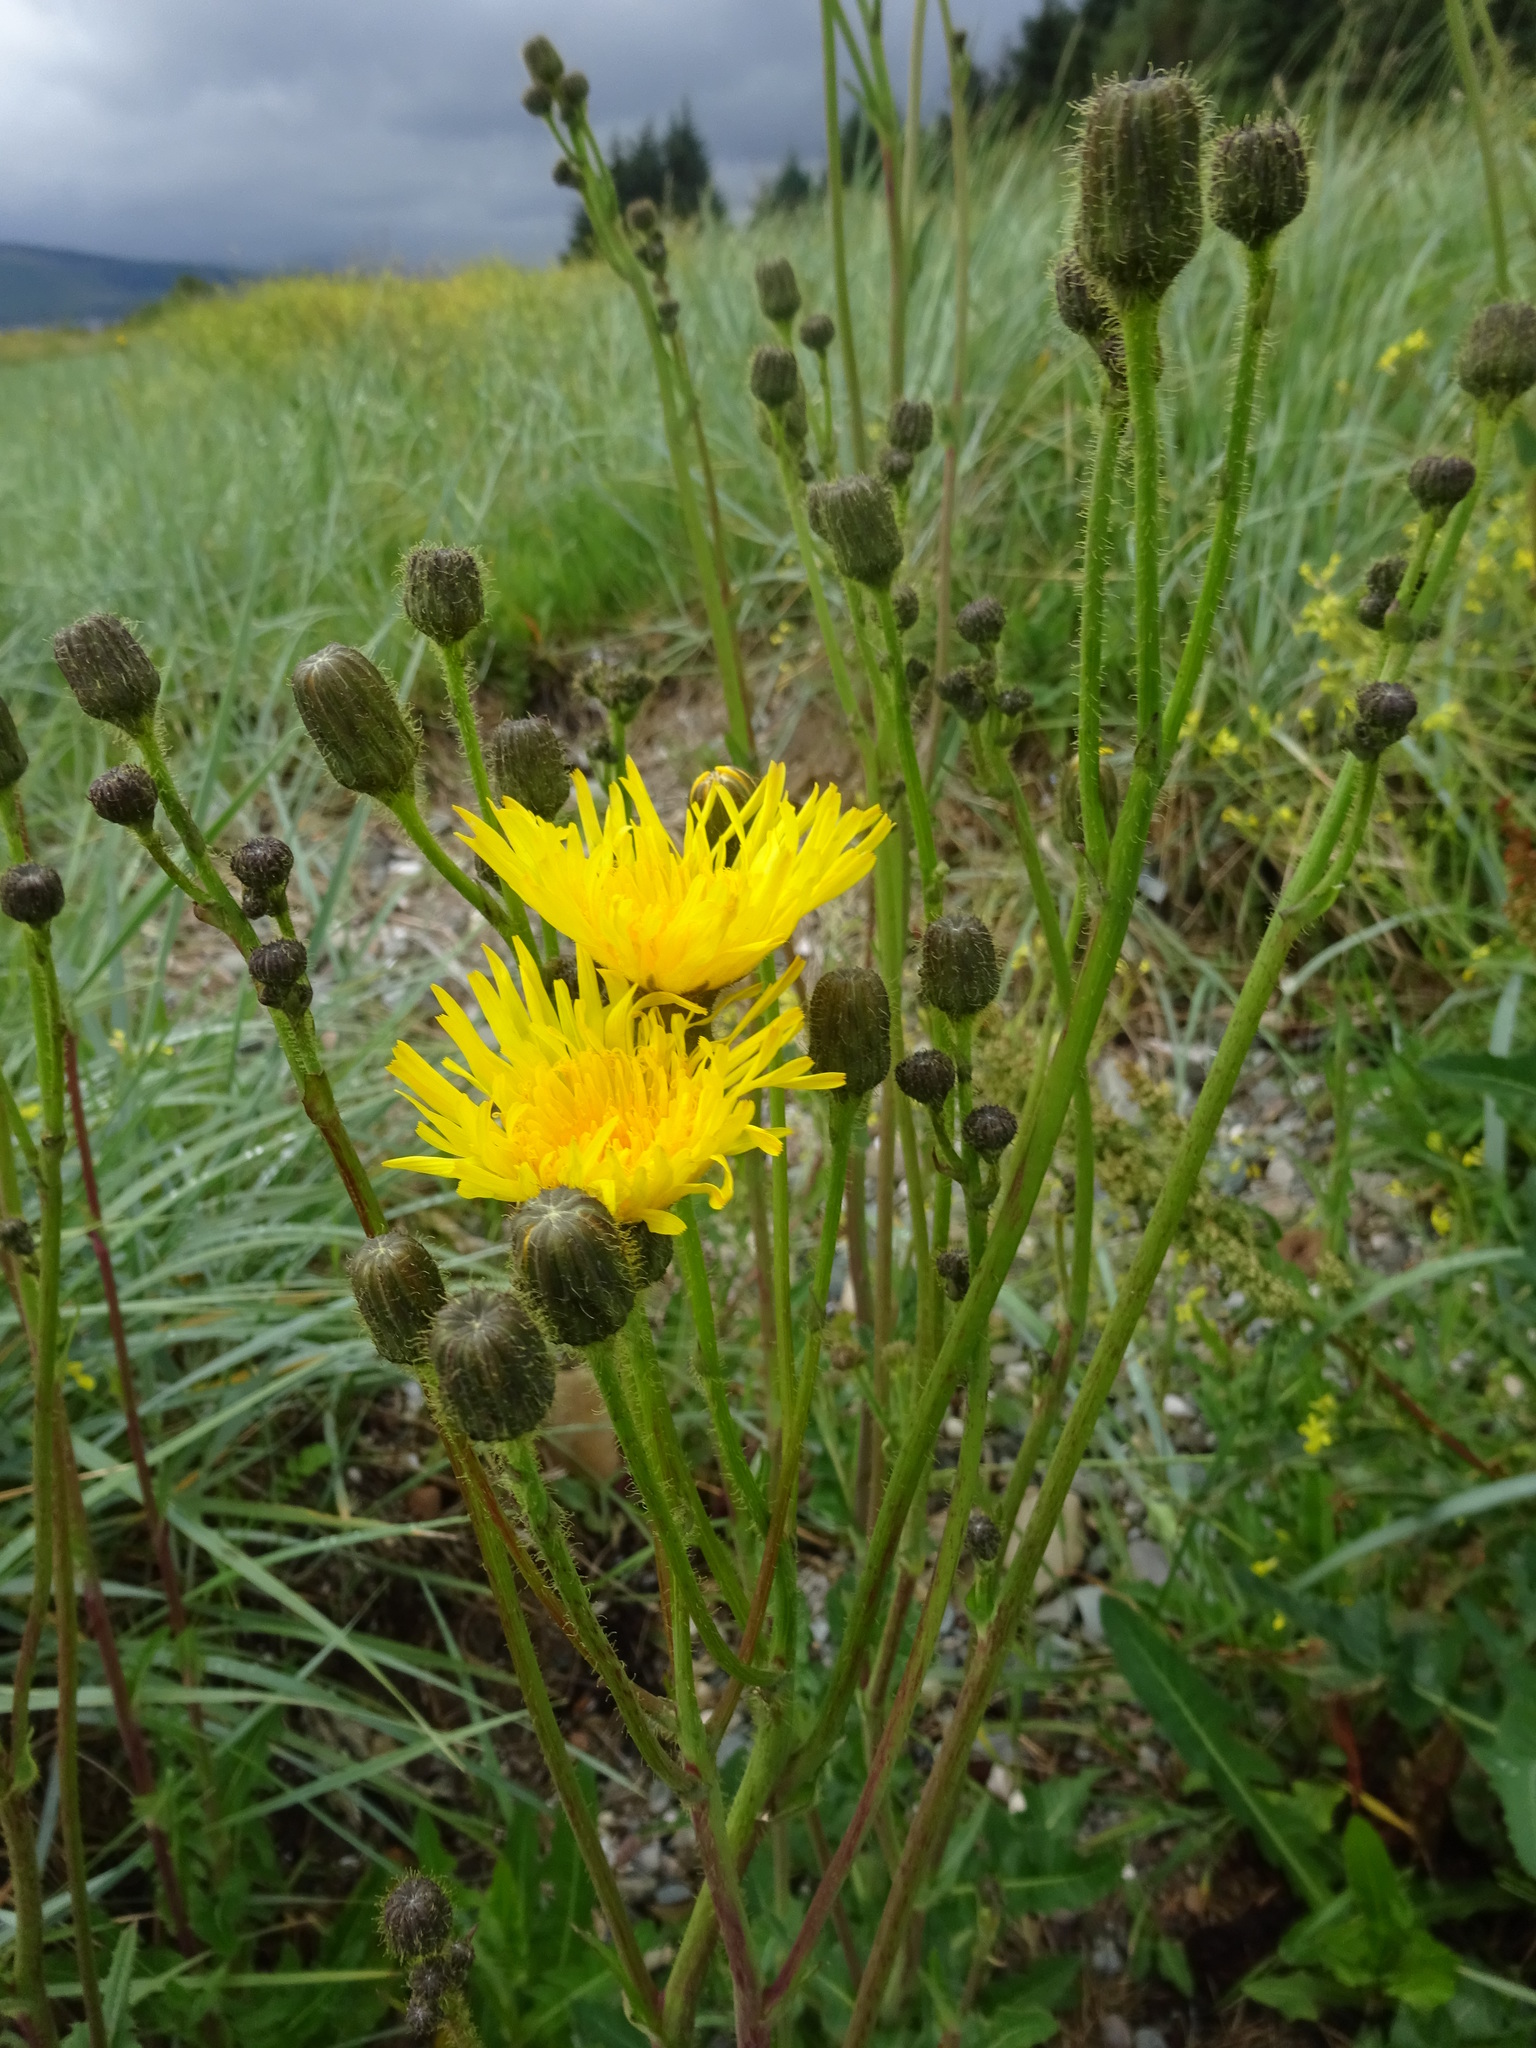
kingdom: Plantae
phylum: Tracheophyta
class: Magnoliopsida
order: Asterales
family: Asteraceae
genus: Sonchus
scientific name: Sonchus arvensis
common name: Perennial sow-thistle
